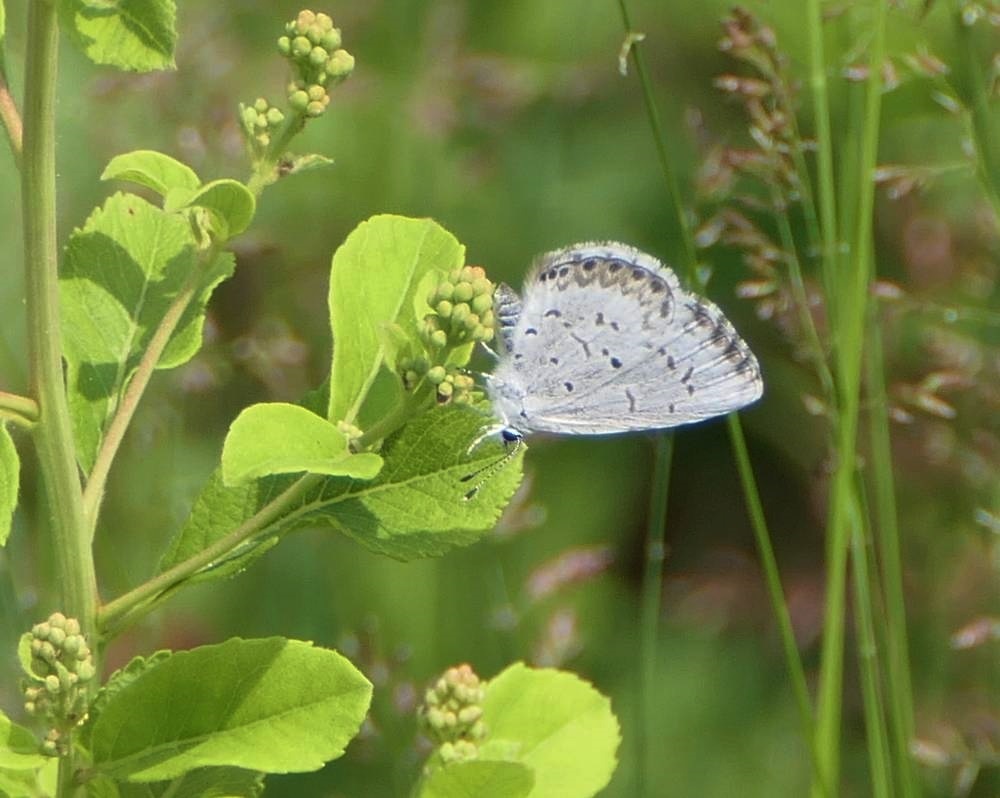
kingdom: Animalia
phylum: Arthropoda
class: Insecta
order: Lepidoptera
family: Lycaenidae
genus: Celastrina
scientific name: Celastrina lucia
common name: Lucia azure
